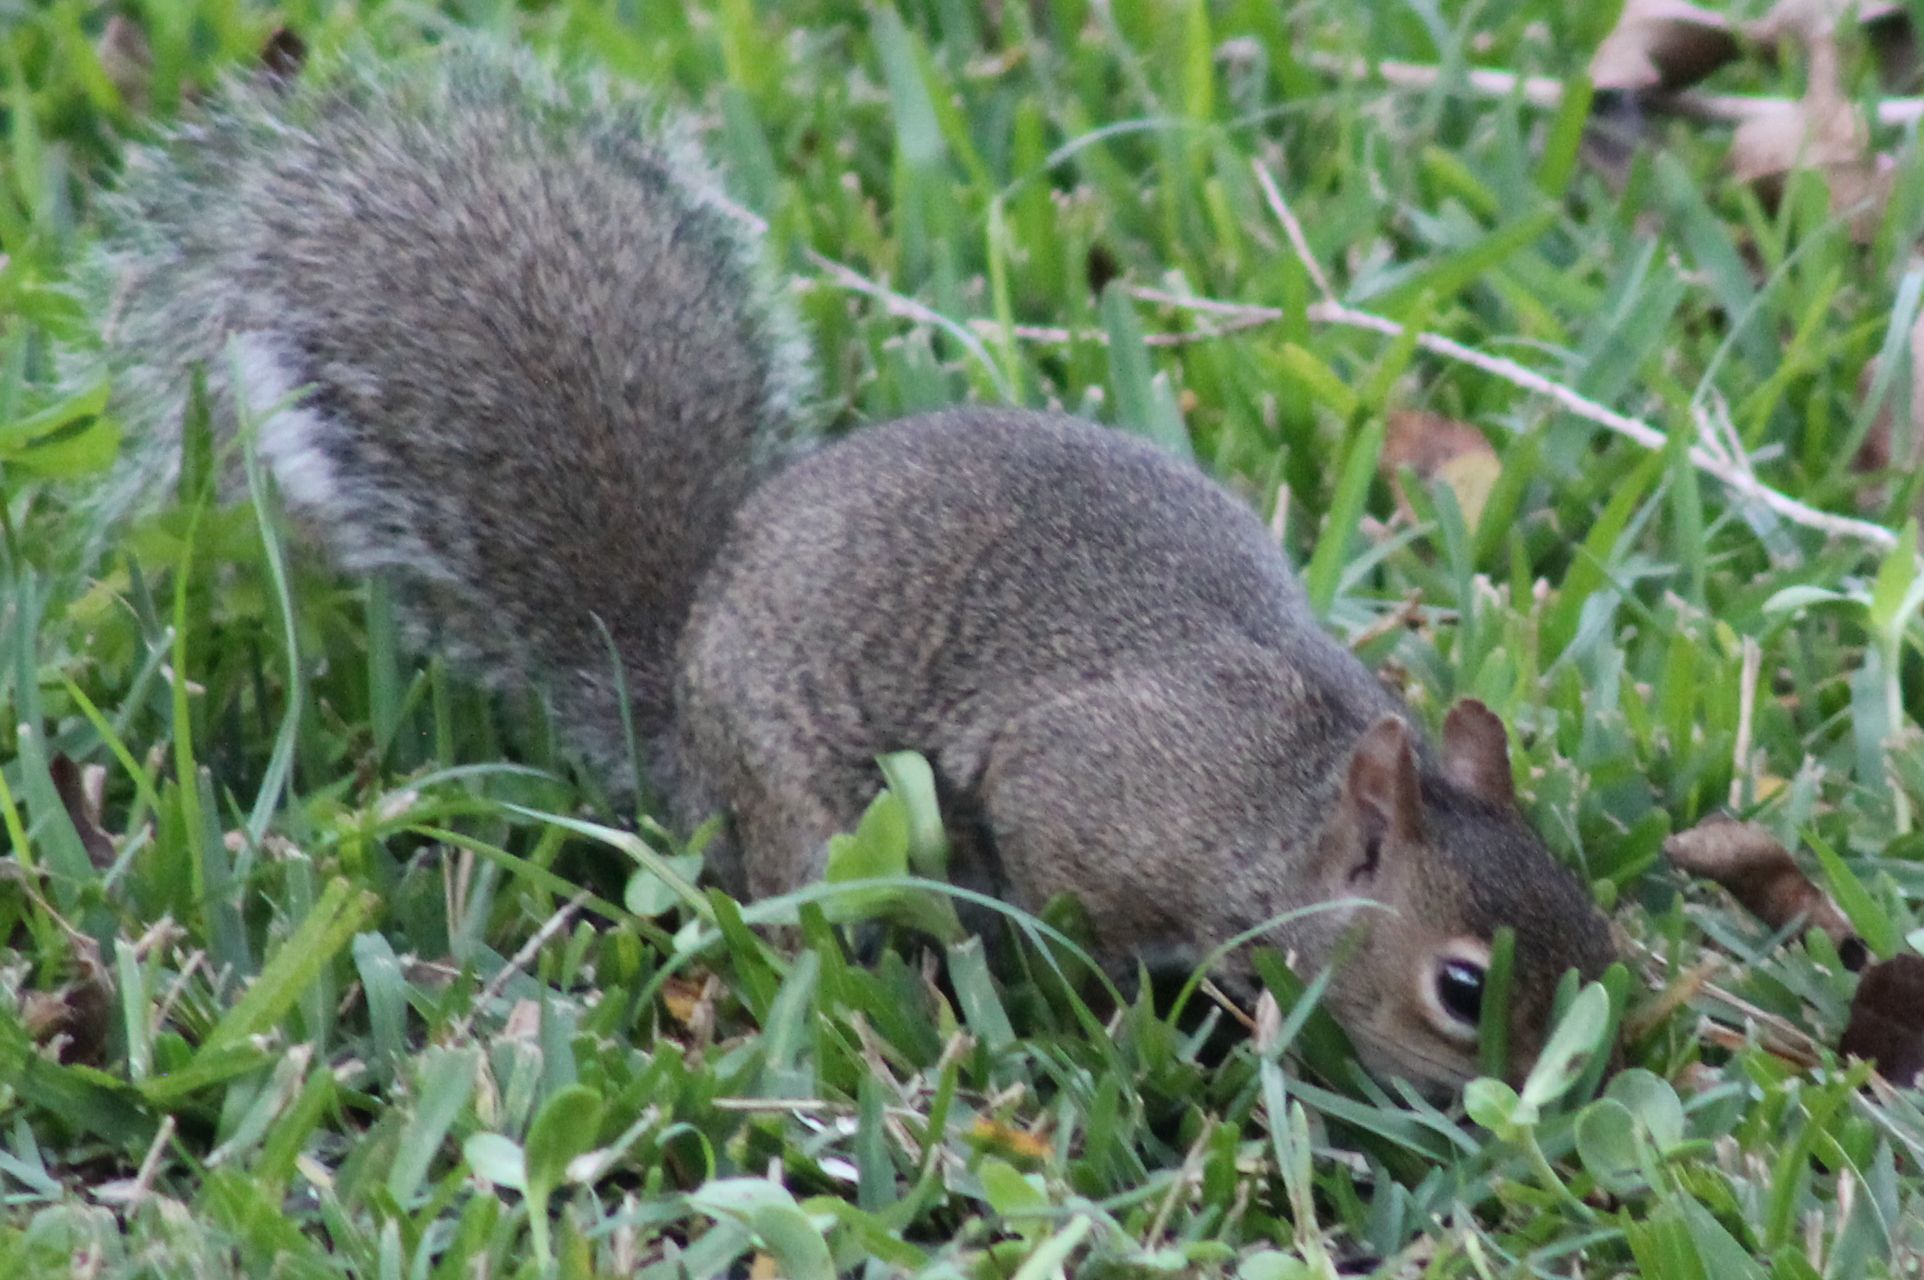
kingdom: Animalia
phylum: Chordata
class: Mammalia
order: Rodentia
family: Sciuridae
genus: Sciurus
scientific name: Sciurus carolinensis
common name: Eastern gray squirrel
